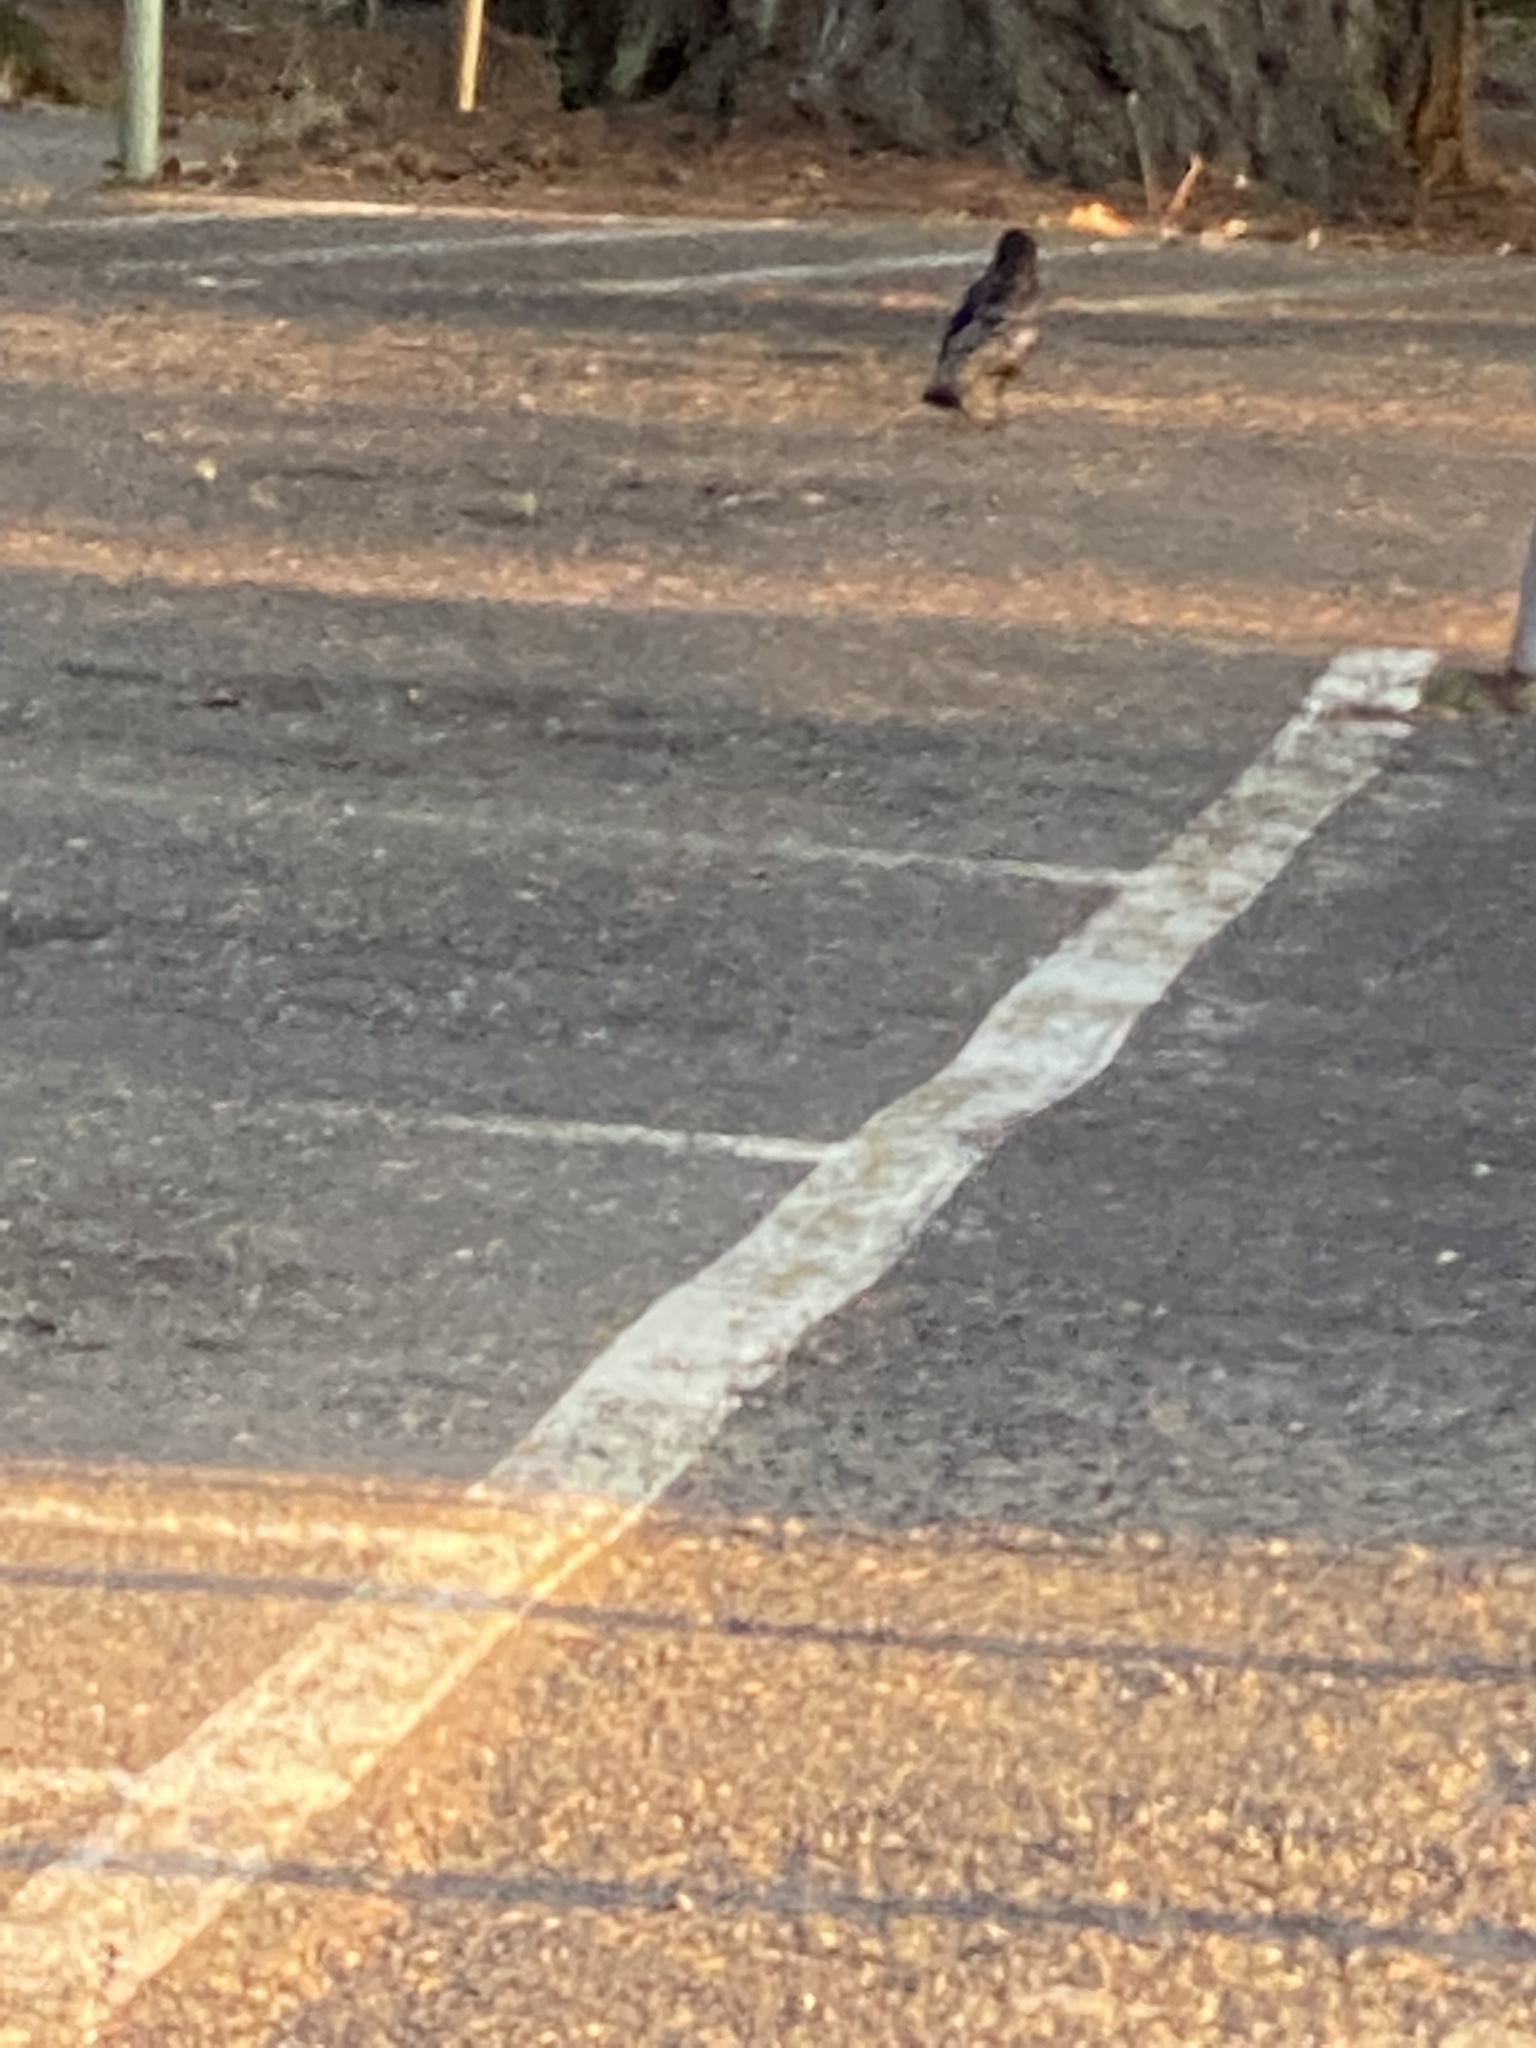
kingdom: Animalia
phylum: Chordata
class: Aves
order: Passeriformes
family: Corvidae
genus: Corvus
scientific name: Corvus brachyrhynchos
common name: American crow
